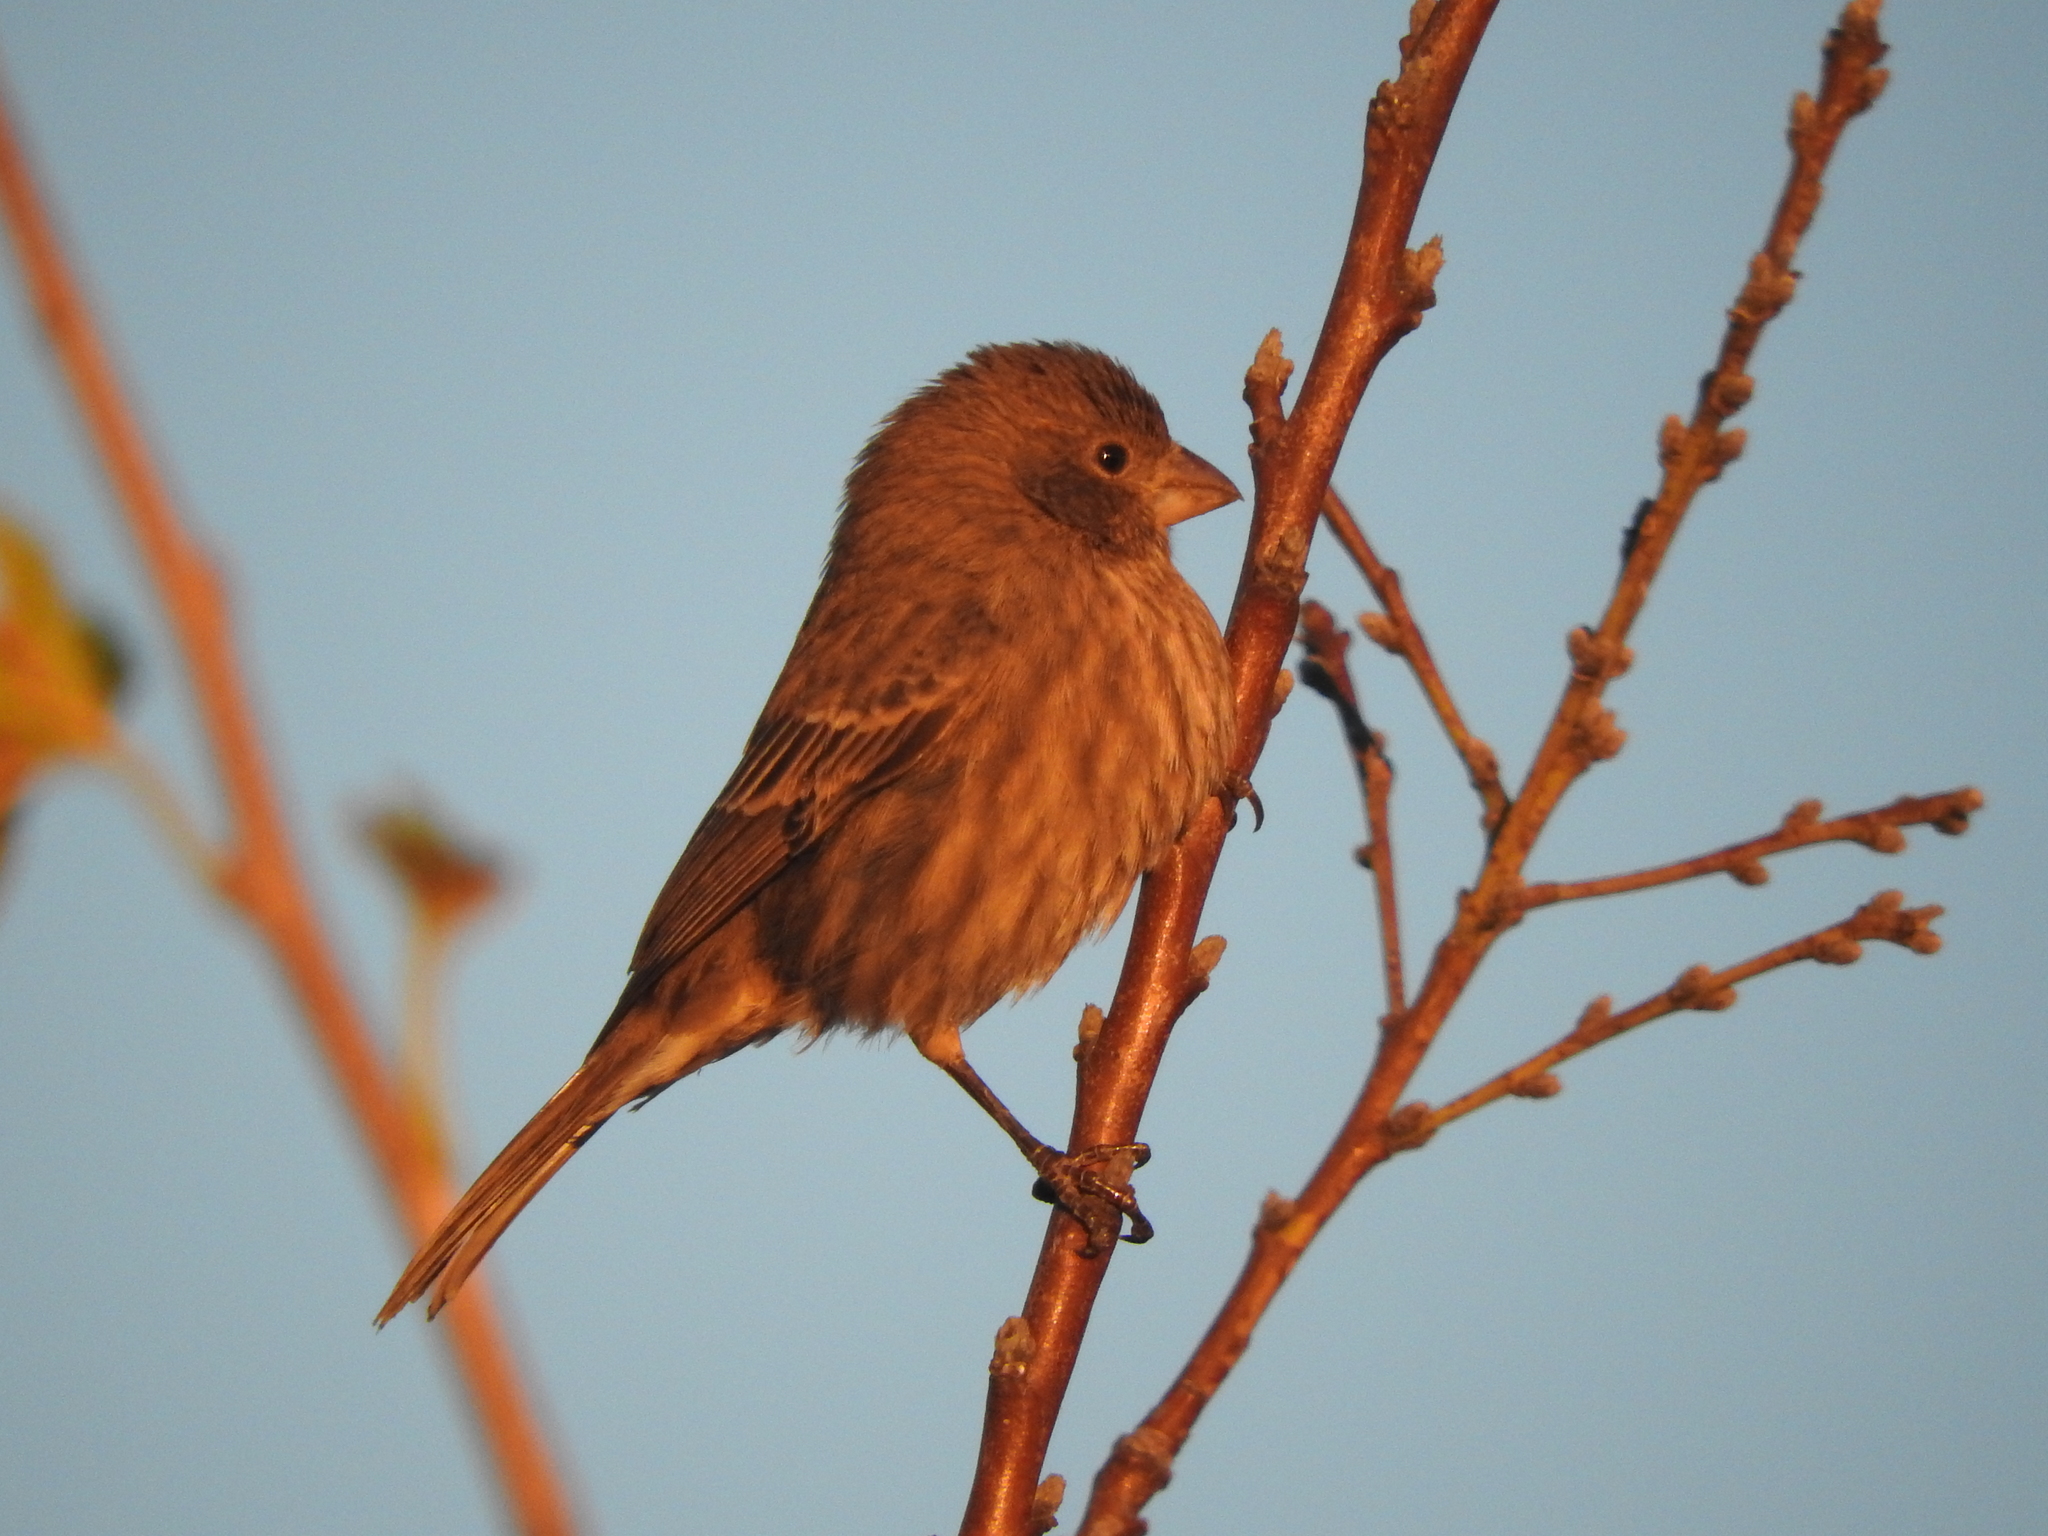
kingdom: Animalia
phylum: Chordata
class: Aves
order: Passeriformes
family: Fringillidae
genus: Haemorhous
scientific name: Haemorhous mexicanus
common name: House finch
